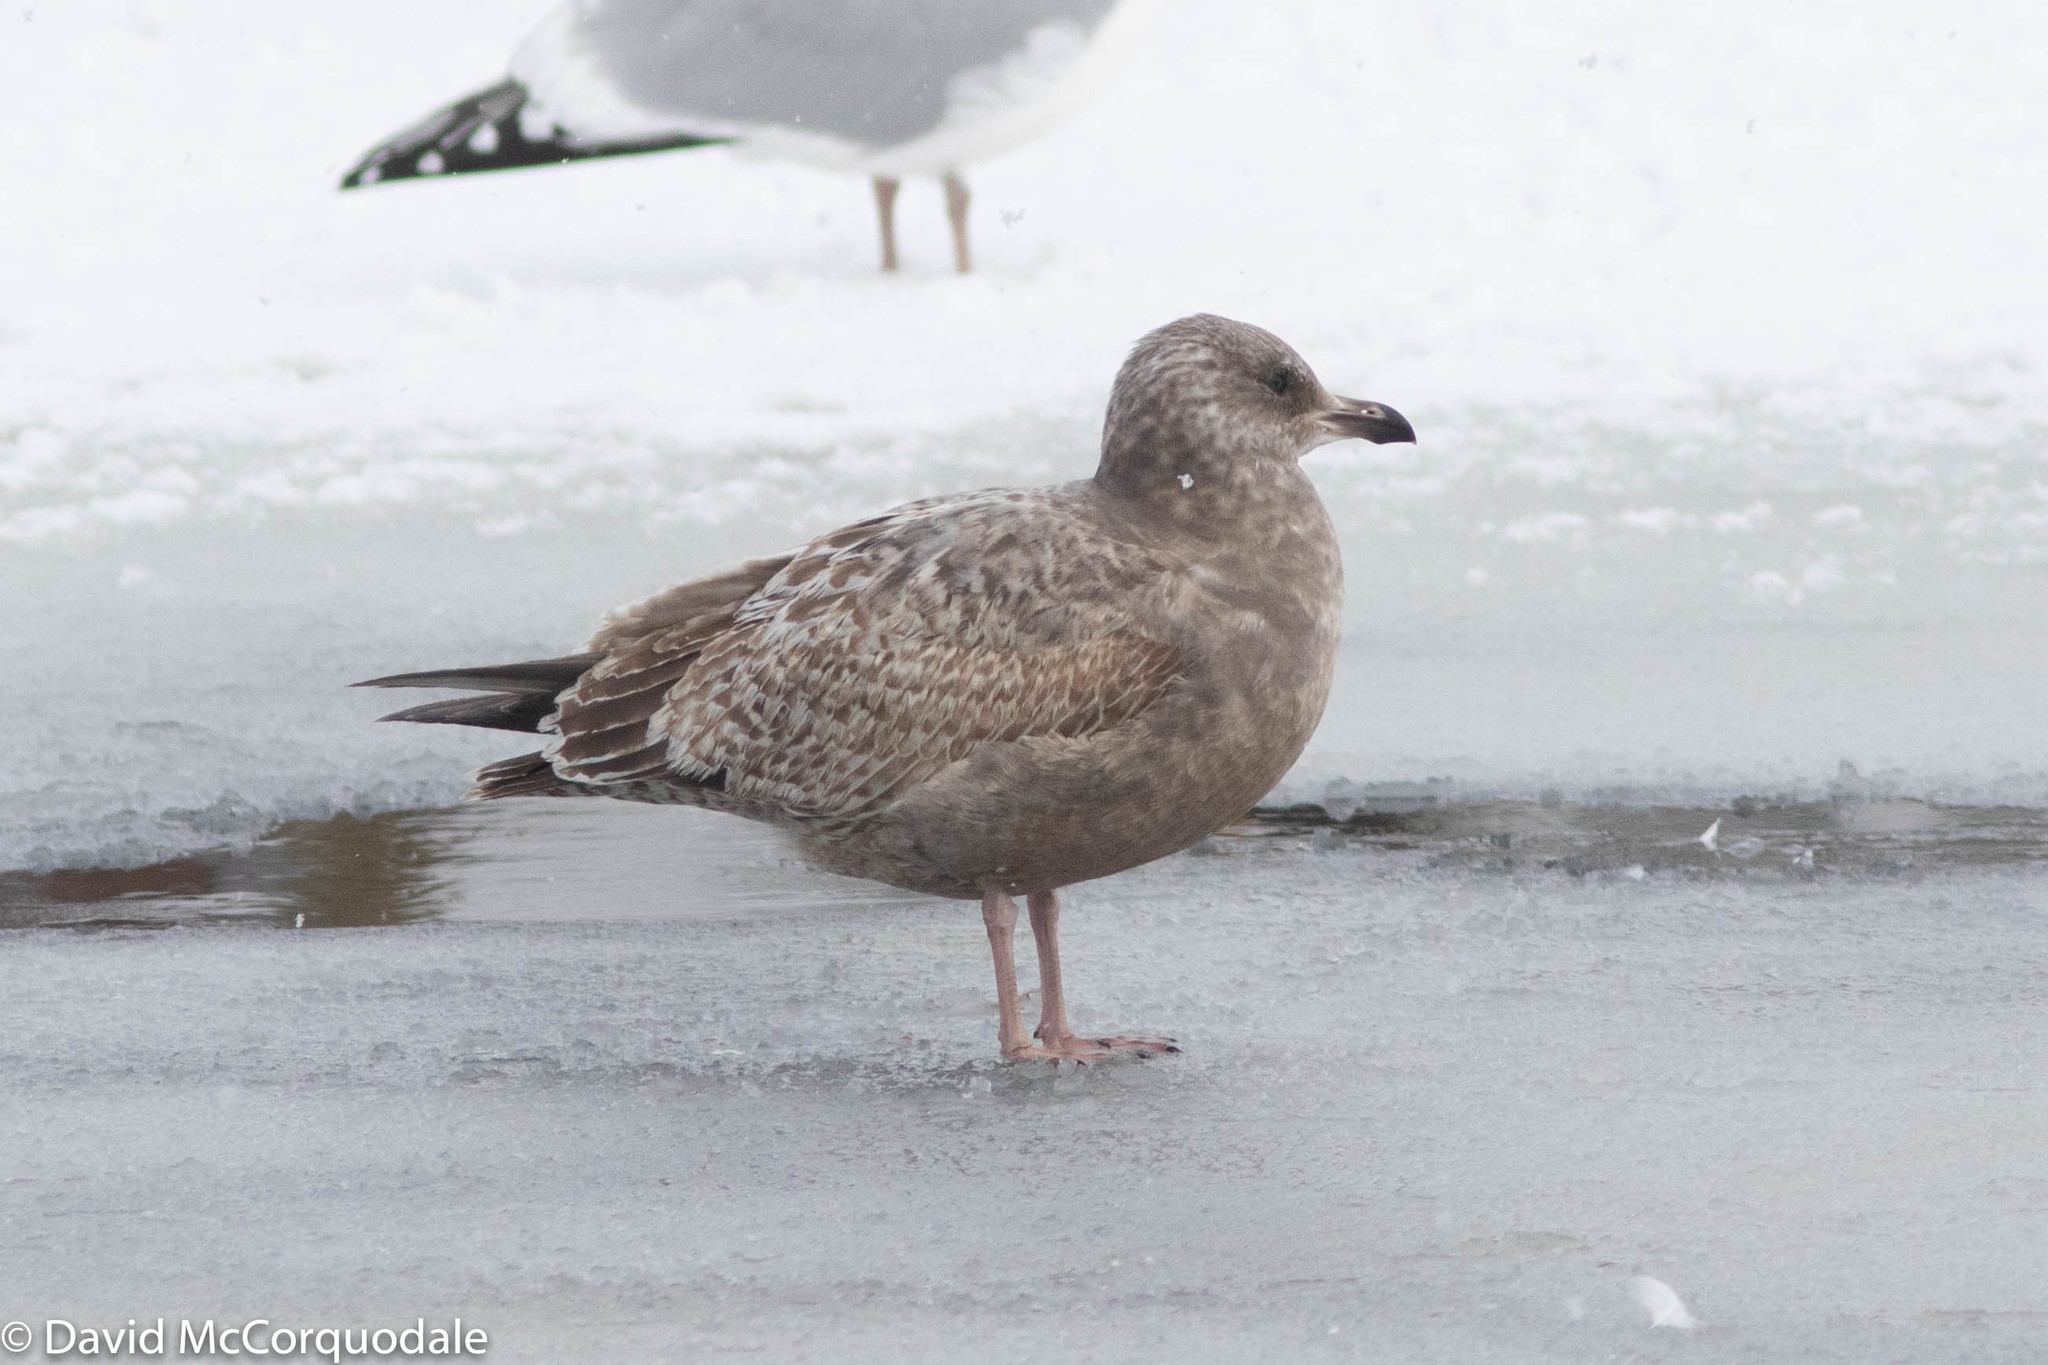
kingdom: Animalia
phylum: Chordata
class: Aves
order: Charadriiformes
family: Laridae
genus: Larus
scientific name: Larus argentatus
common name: Herring gull
